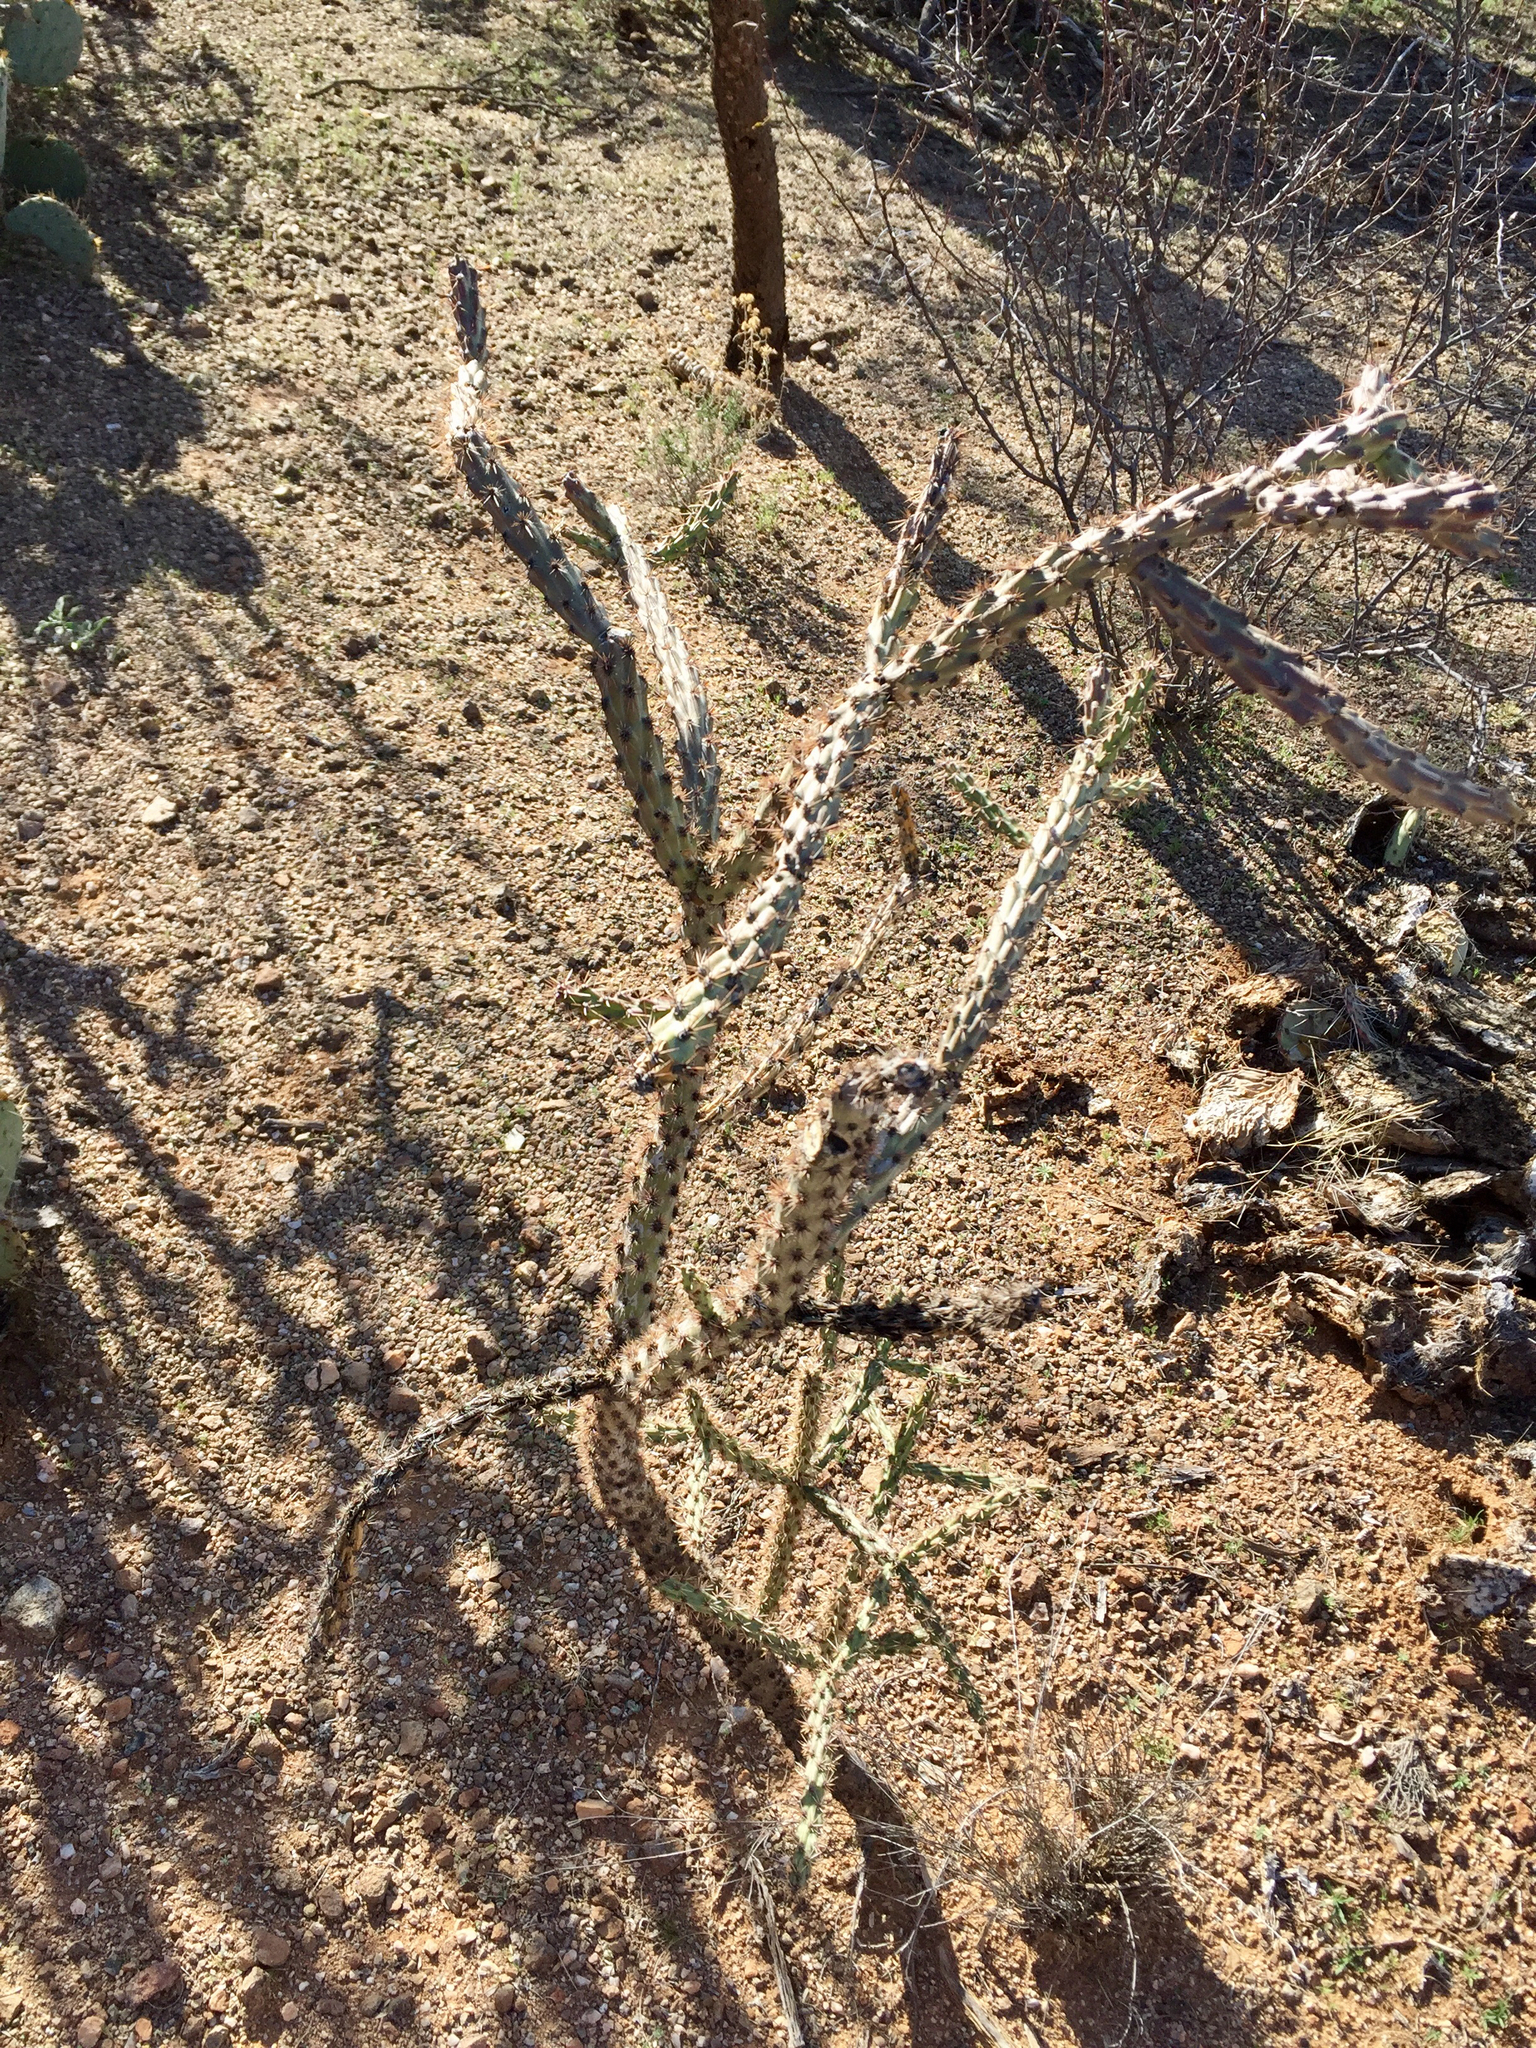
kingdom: Plantae
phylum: Tracheophyta
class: Magnoliopsida
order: Caryophyllales
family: Cactaceae
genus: Cylindropuntia
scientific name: Cylindropuntia acanthocarpa
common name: Buckhorn cholla
